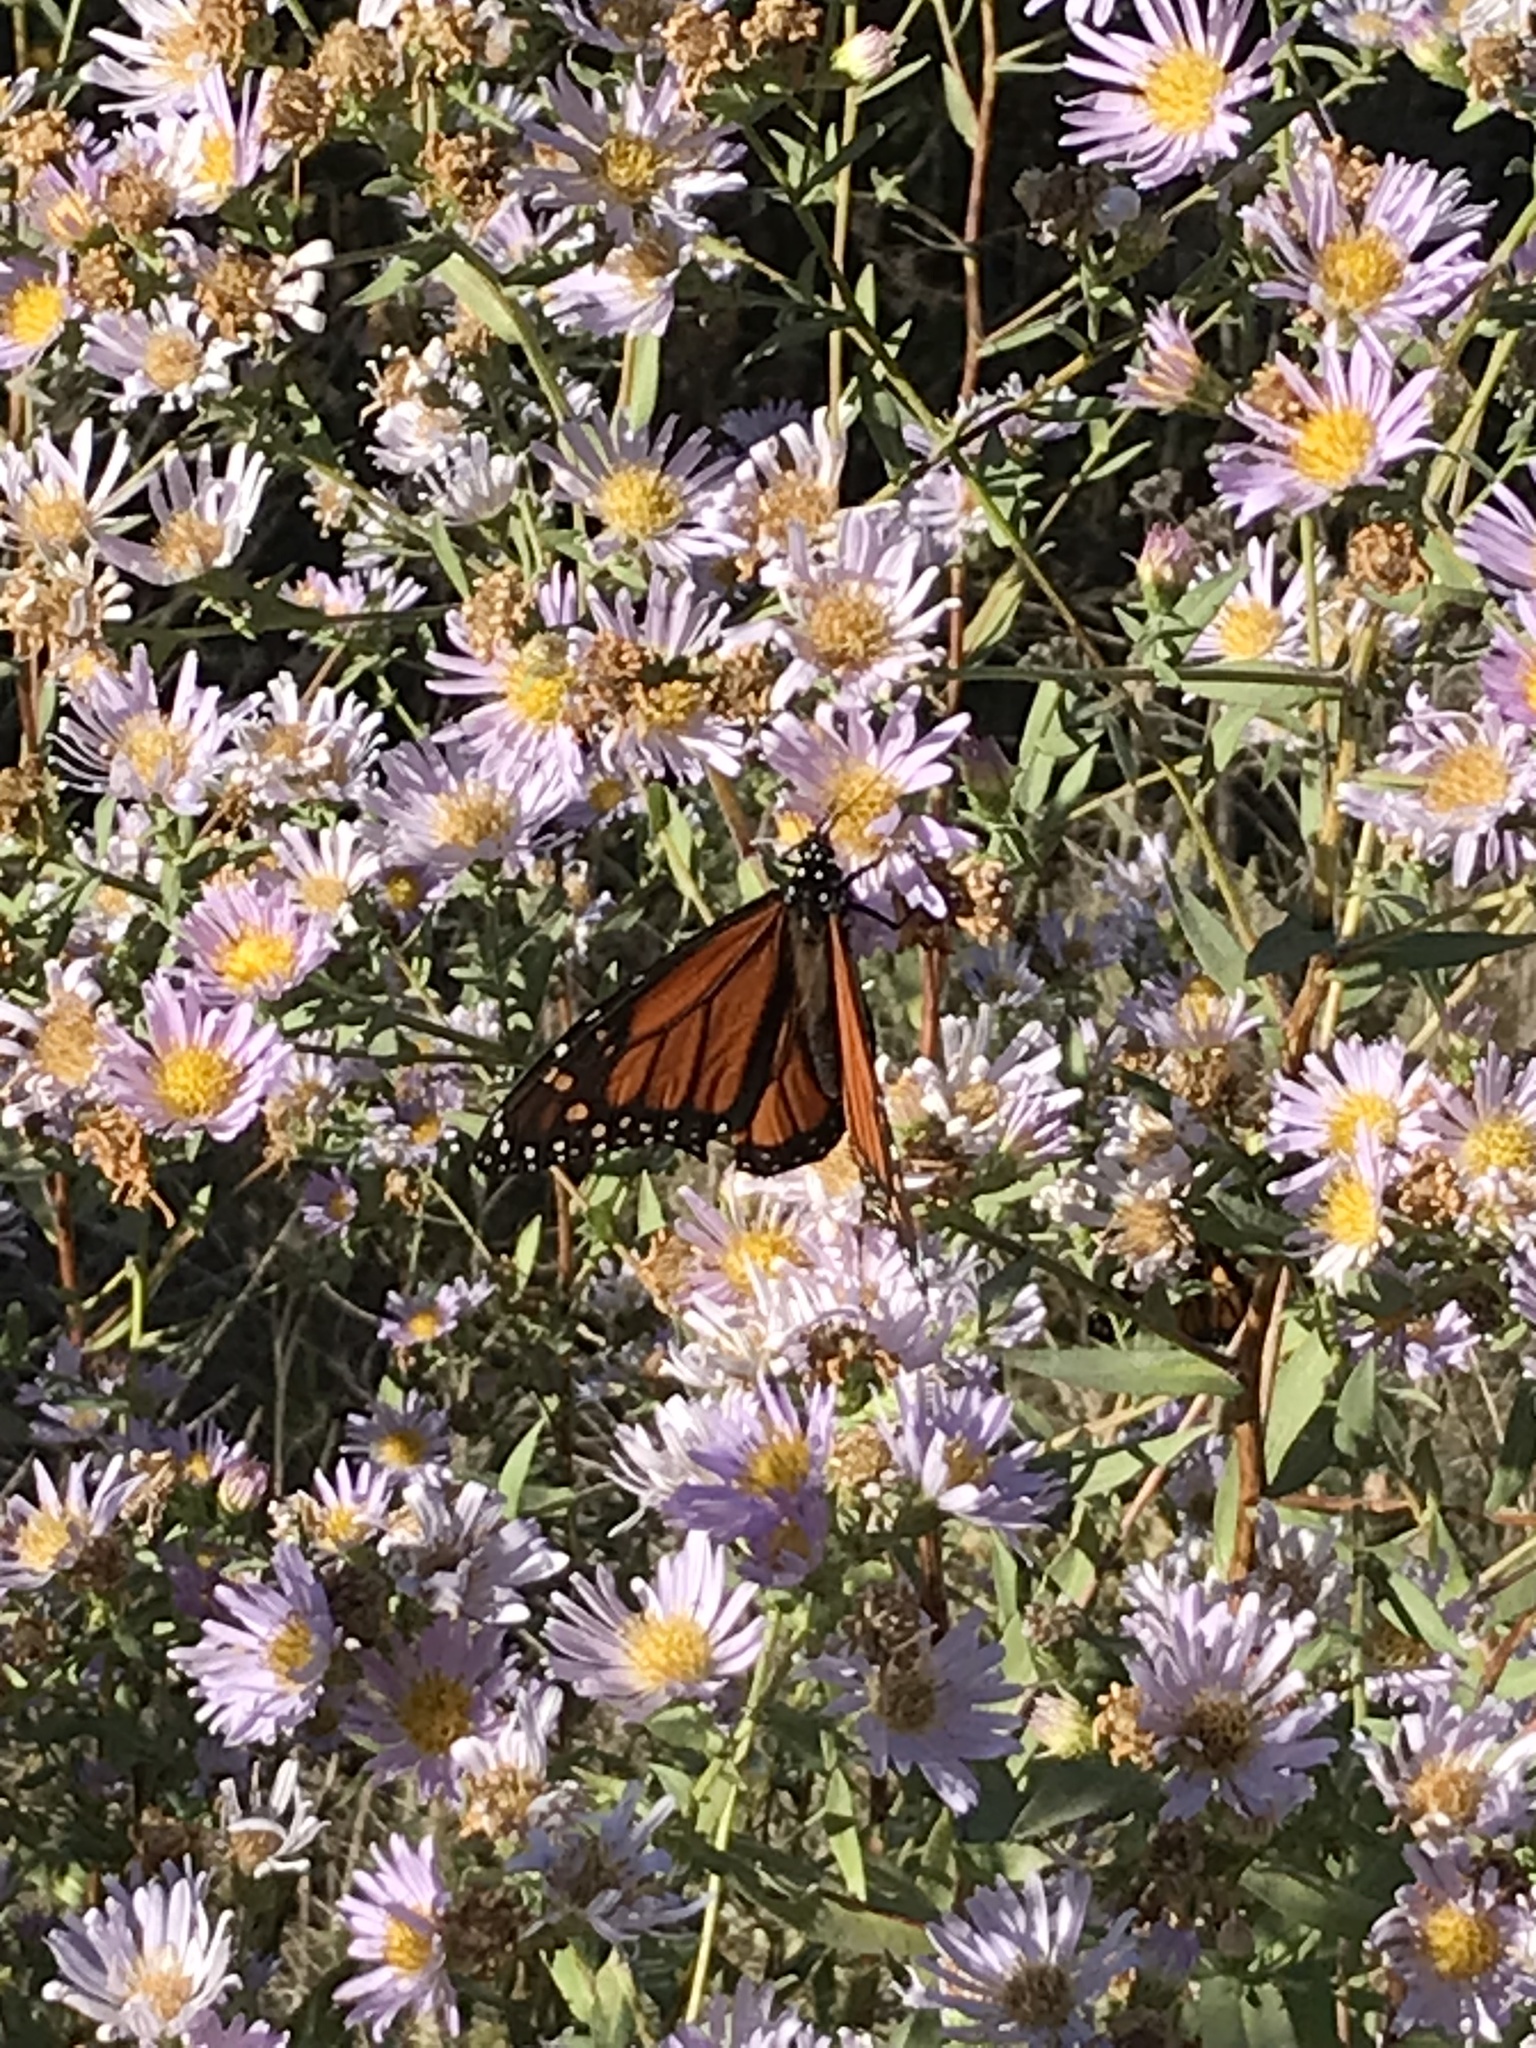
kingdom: Animalia
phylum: Arthropoda
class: Insecta
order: Lepidoptera
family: Nymphalidae
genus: Danaus
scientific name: Danaus plexippus
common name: Monarch
